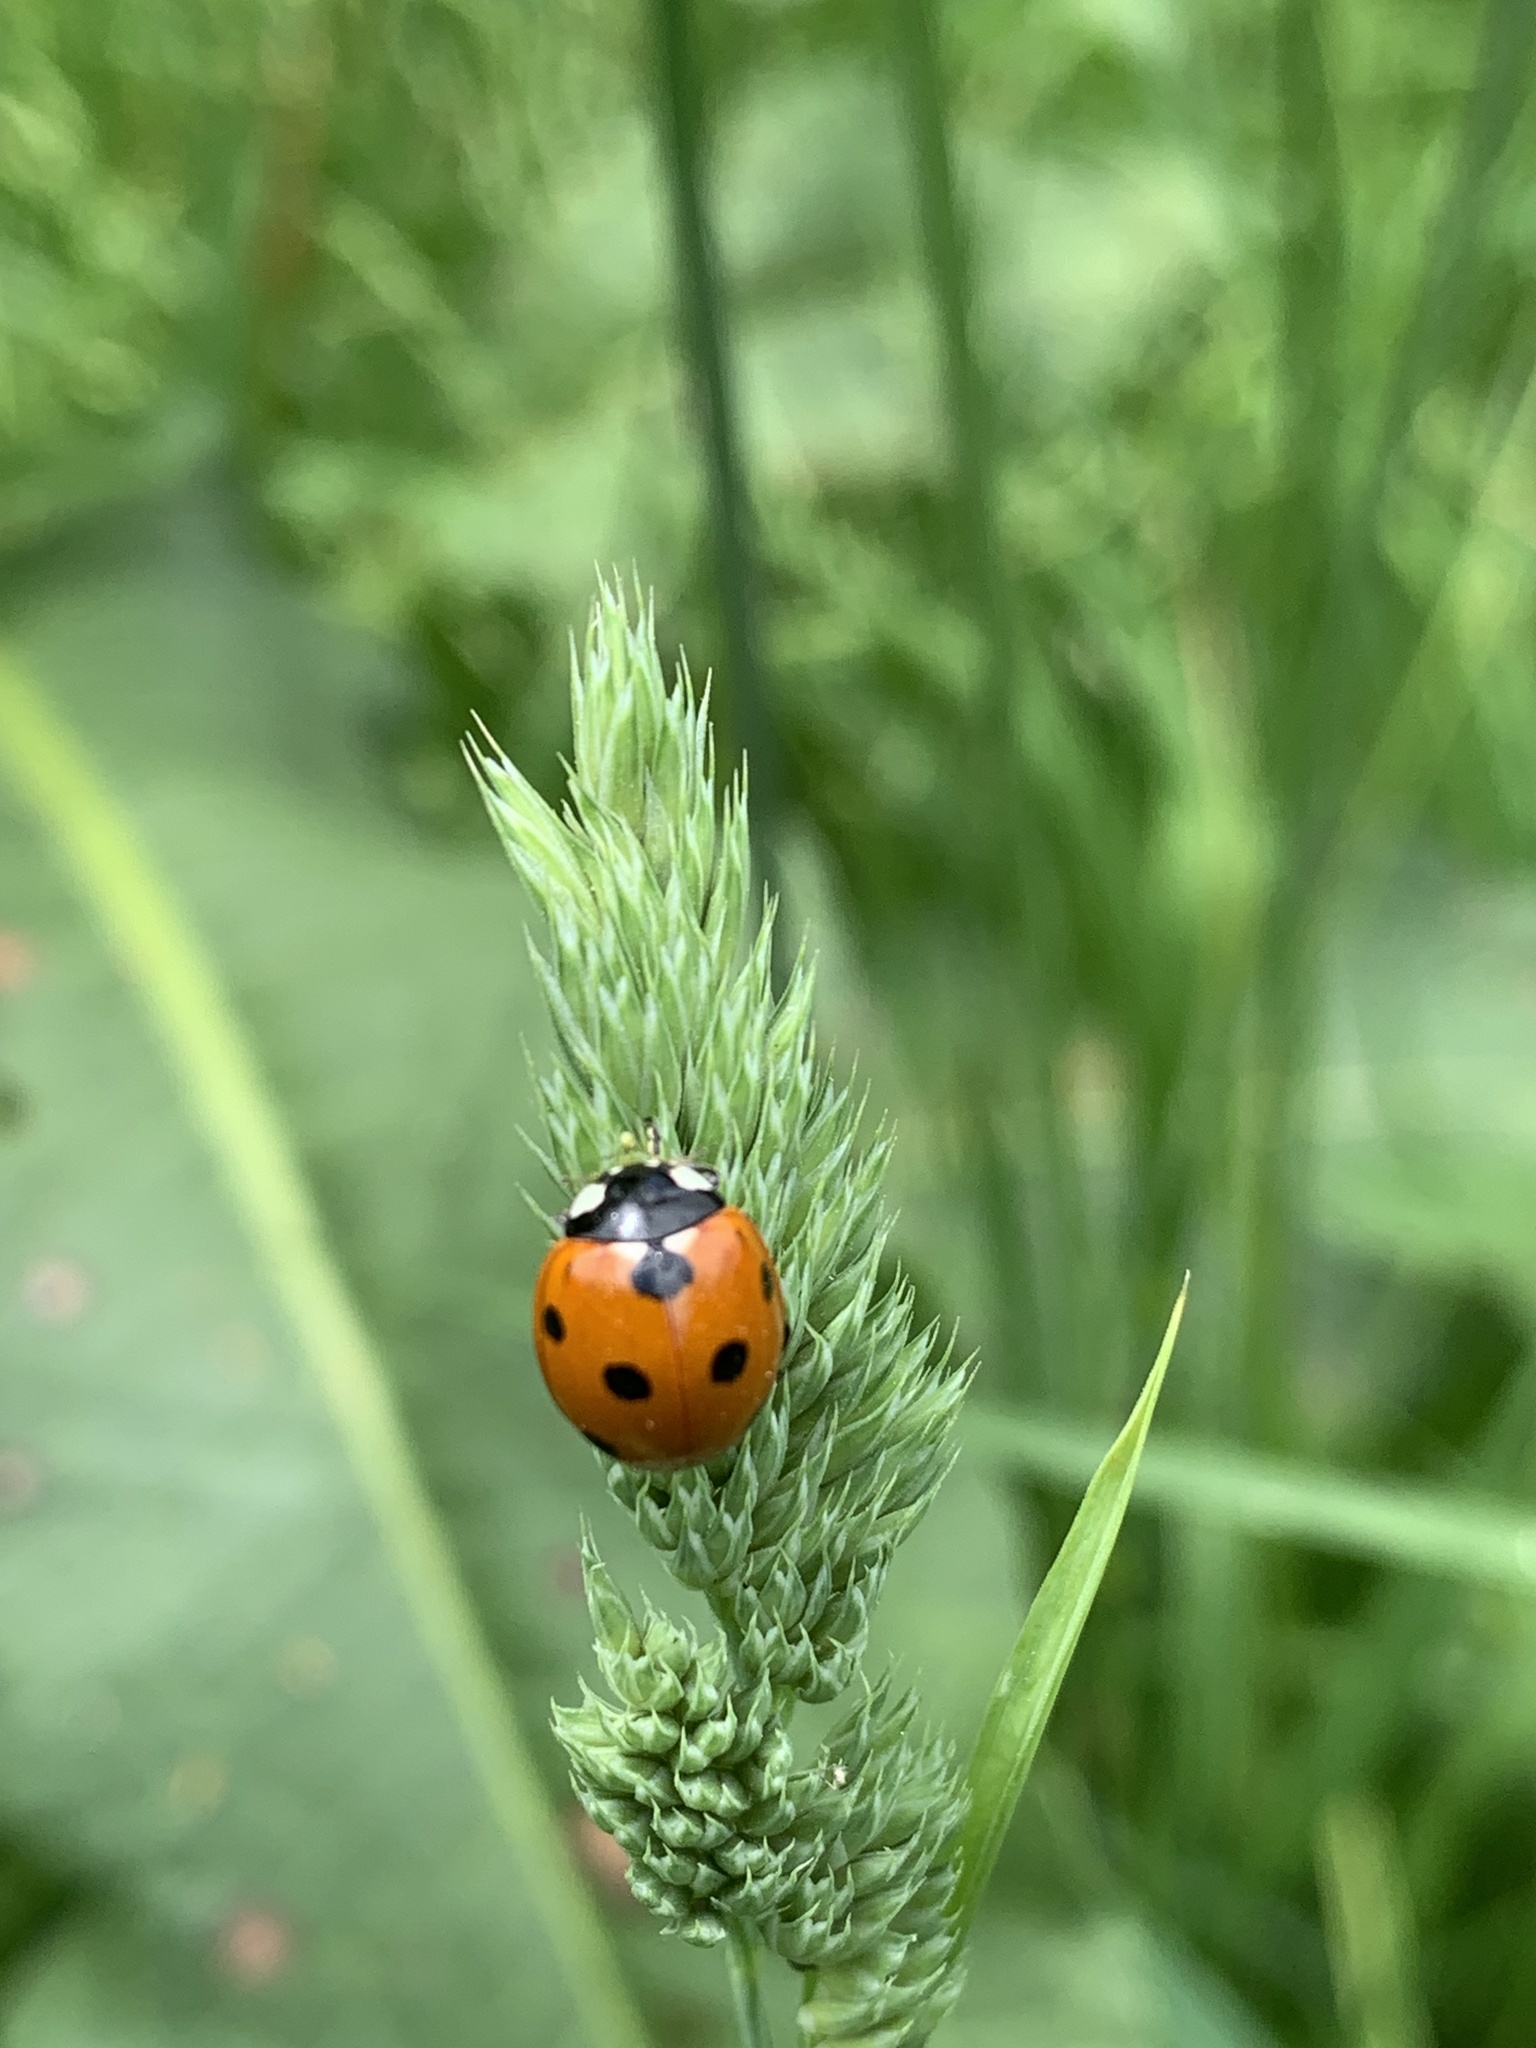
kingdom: Animalia
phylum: Arthropoda
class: Insecta
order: Coleoptera
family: Coccinellidae
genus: Coccinella
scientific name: Coccinella septempunctata
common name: Sevenspotted lady beetle
